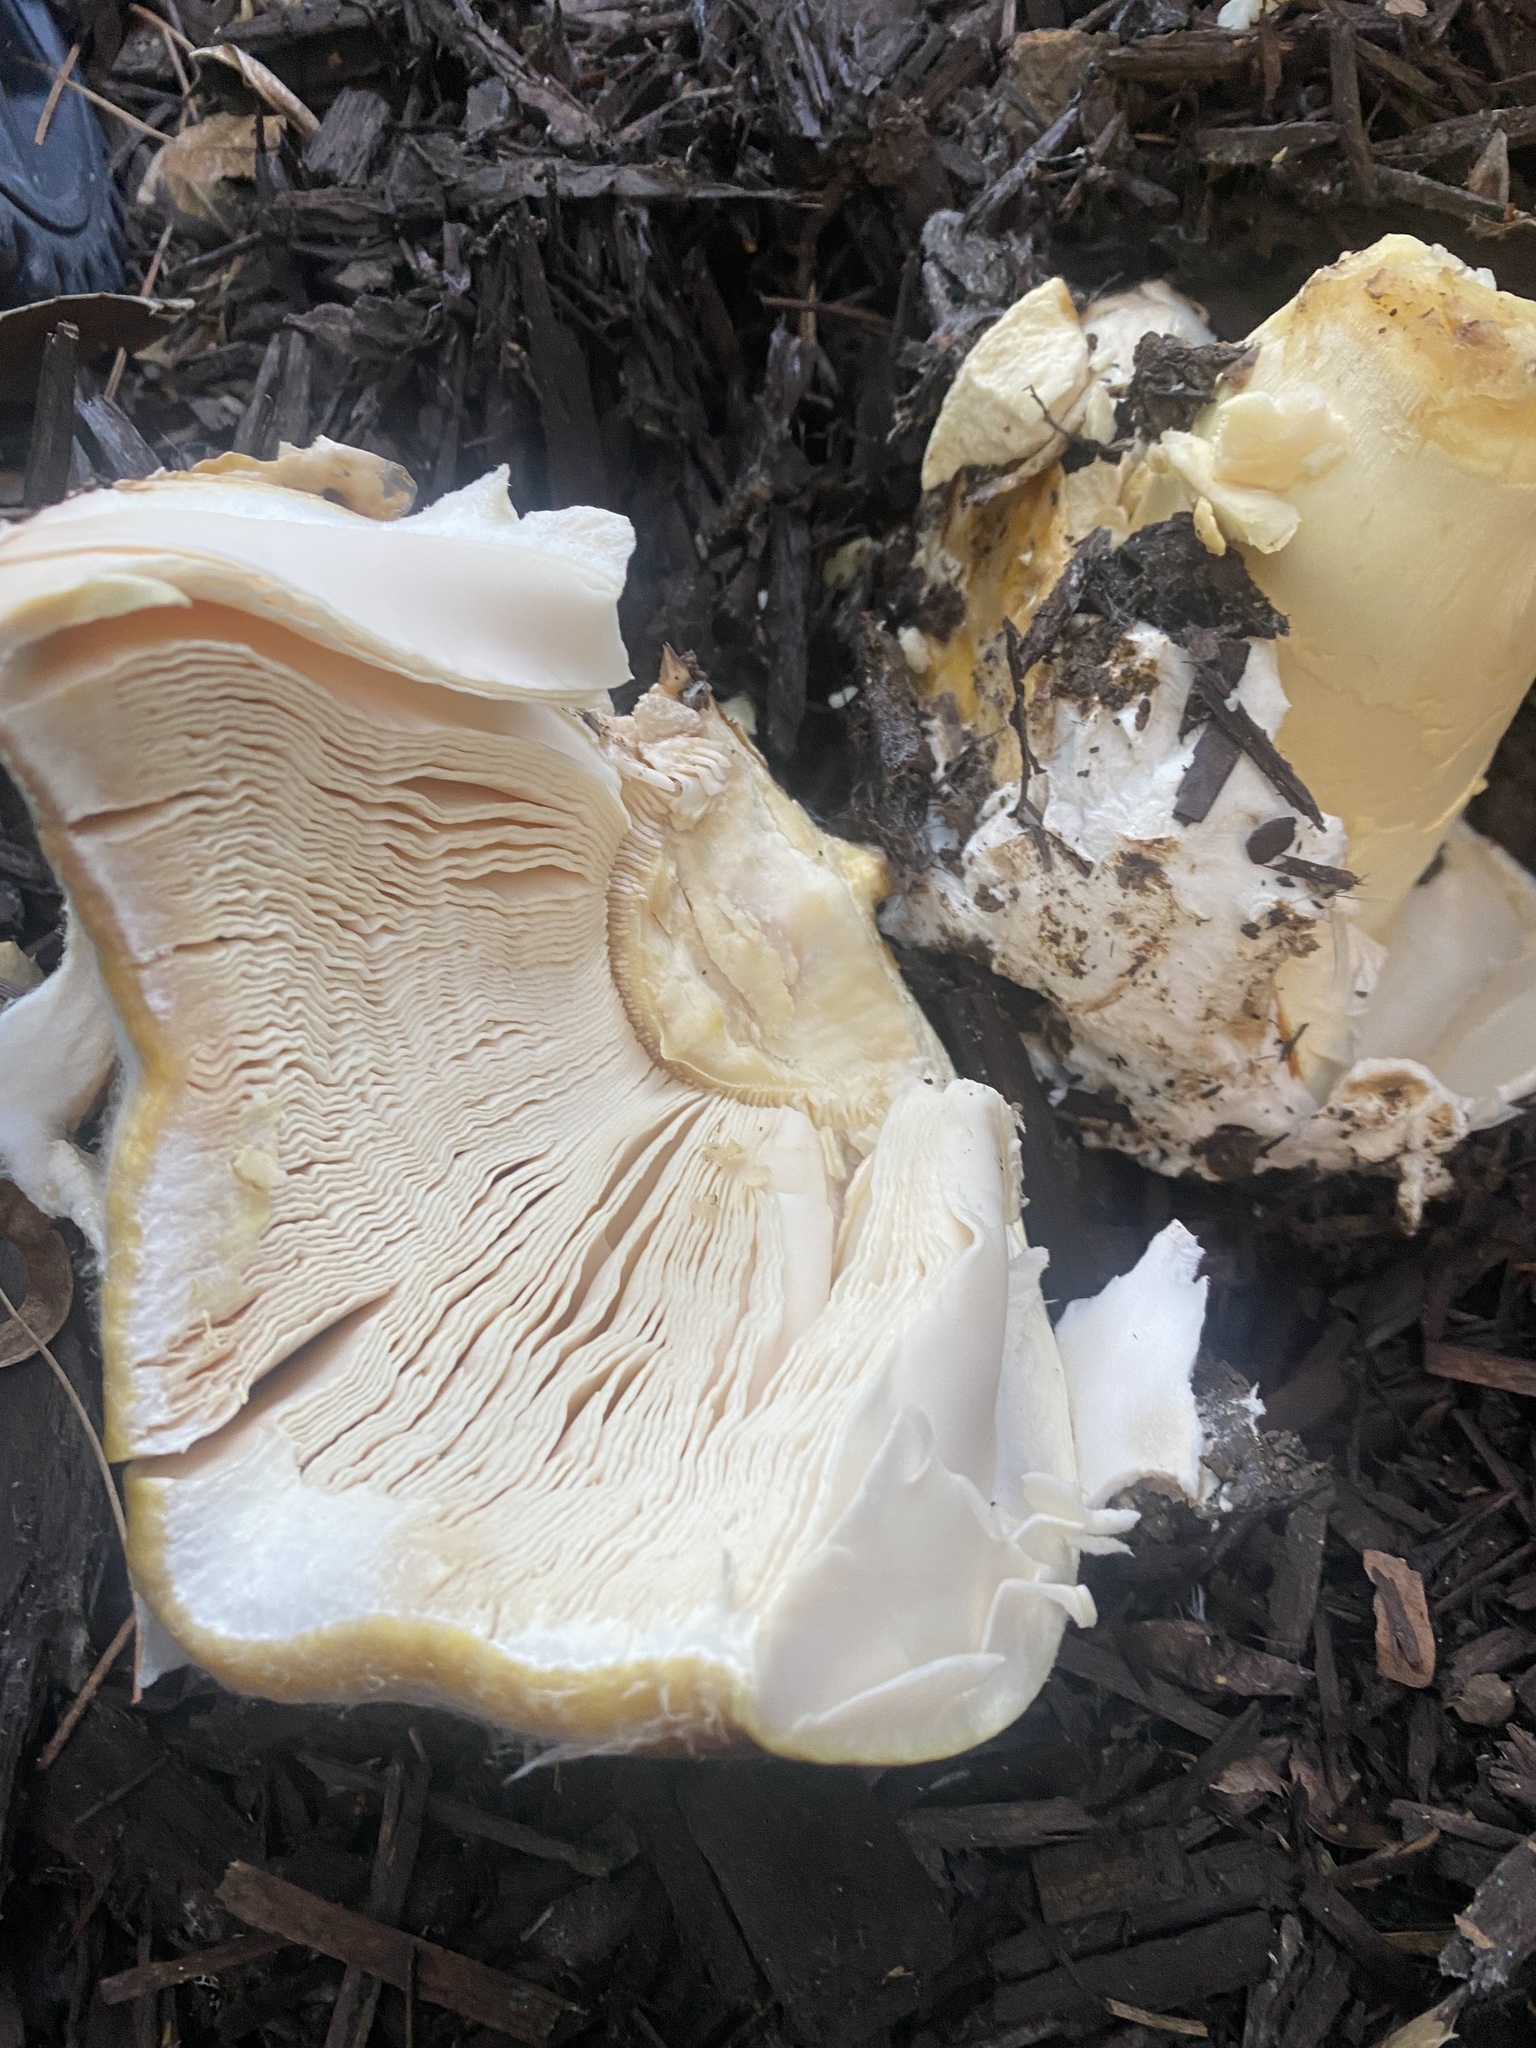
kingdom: Fungi
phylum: Basidiomycota
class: Agaricomycetes
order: Agaricales
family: Amanitaceae
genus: Amanita
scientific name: Amanita calyptroderma
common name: Coccora
